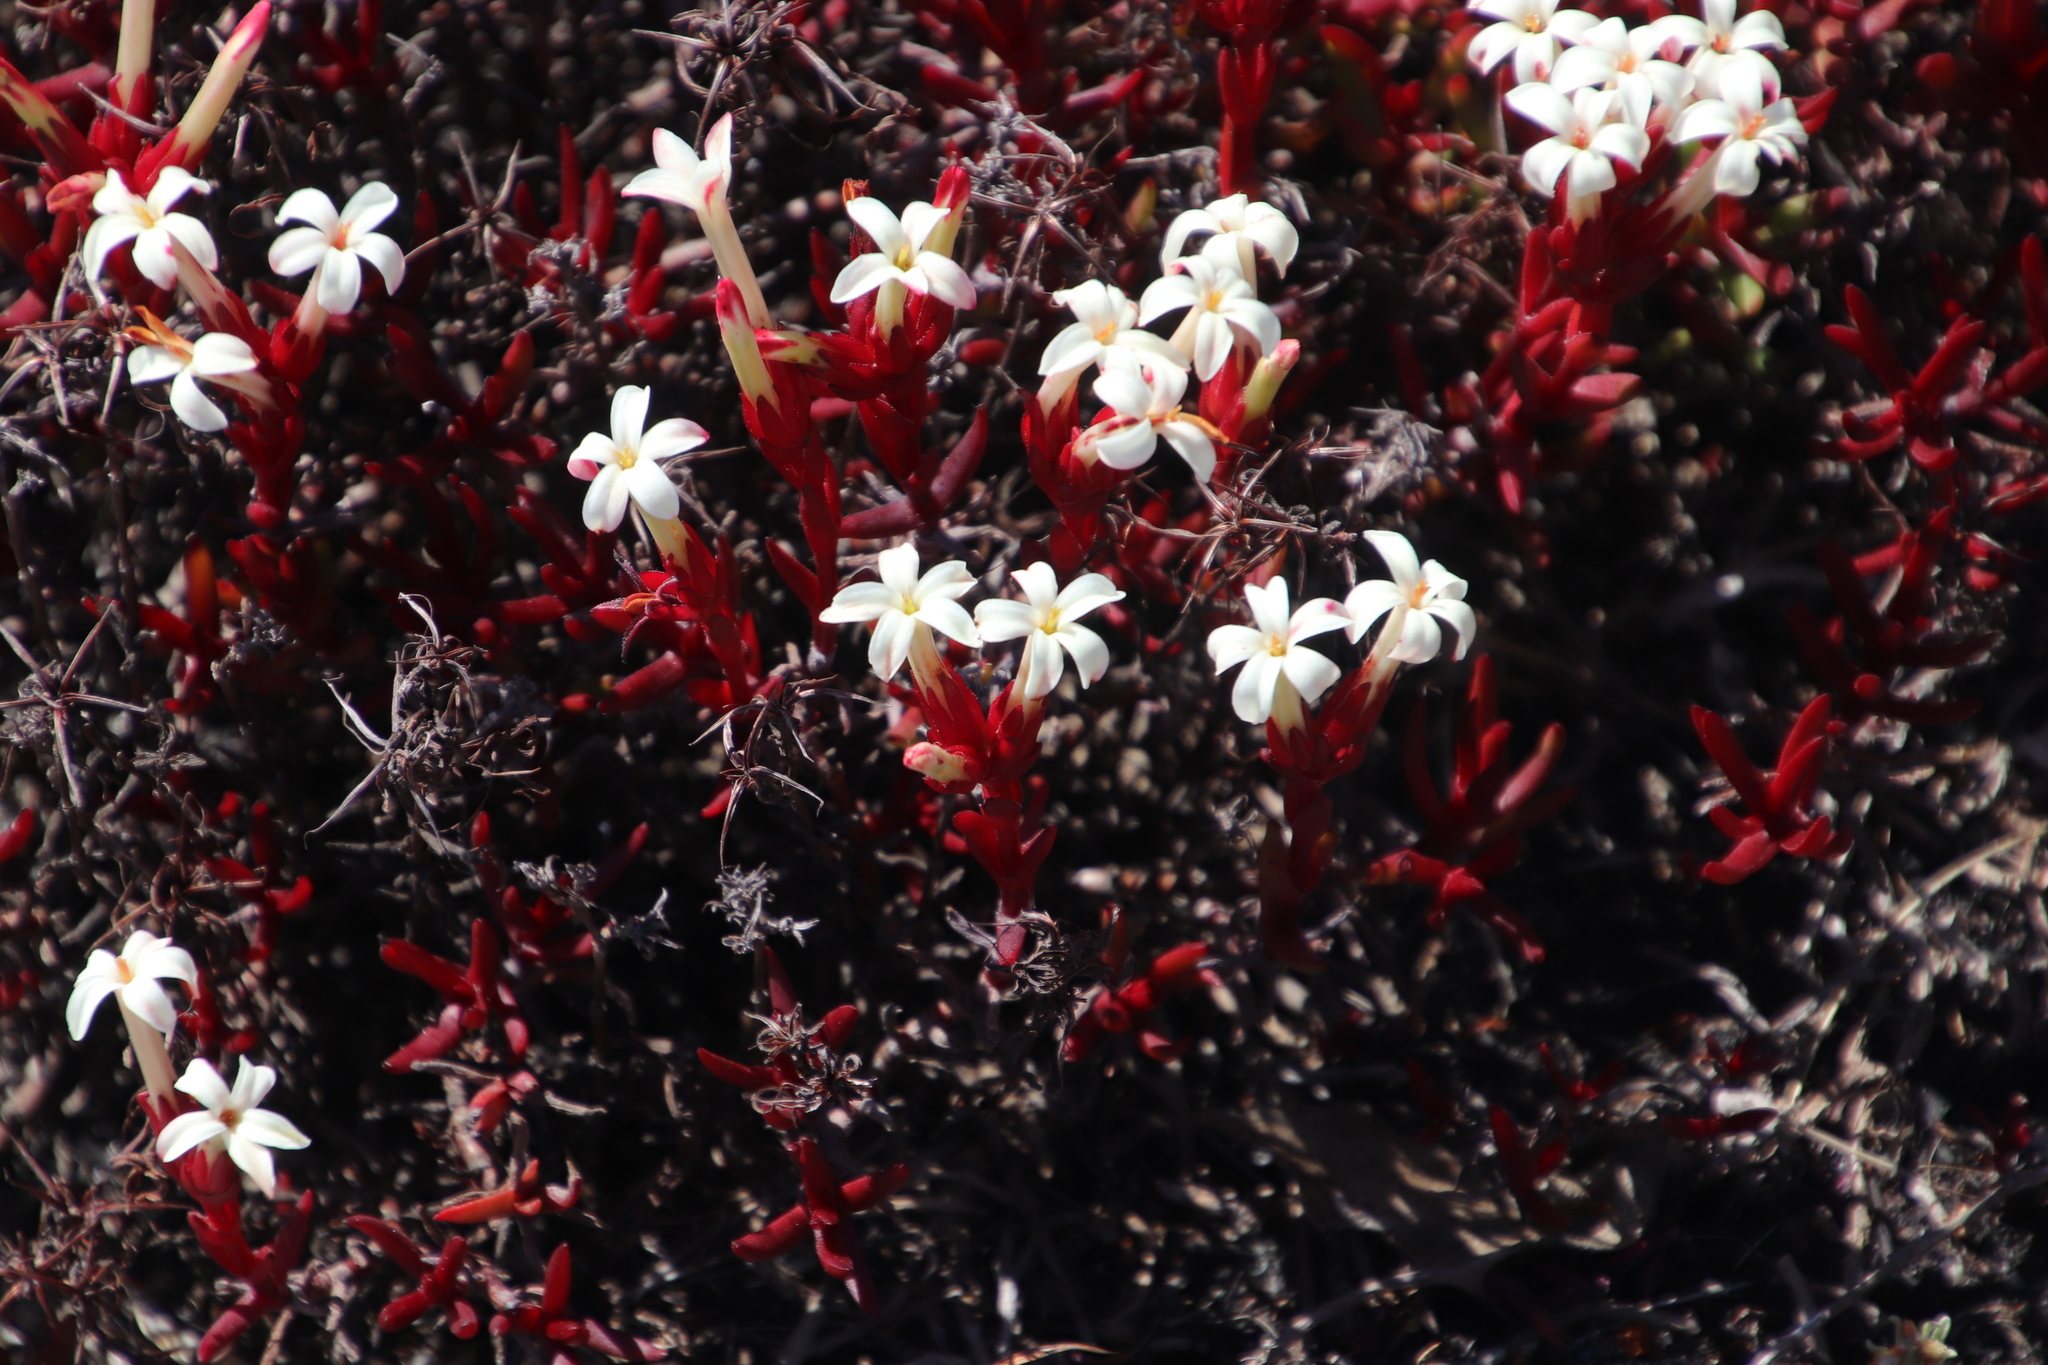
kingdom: Plantae
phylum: Tracheophyta
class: Magnoliopsida
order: Saxifragales
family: Crassulaceae
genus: Crassula
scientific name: Crassula obtusa
